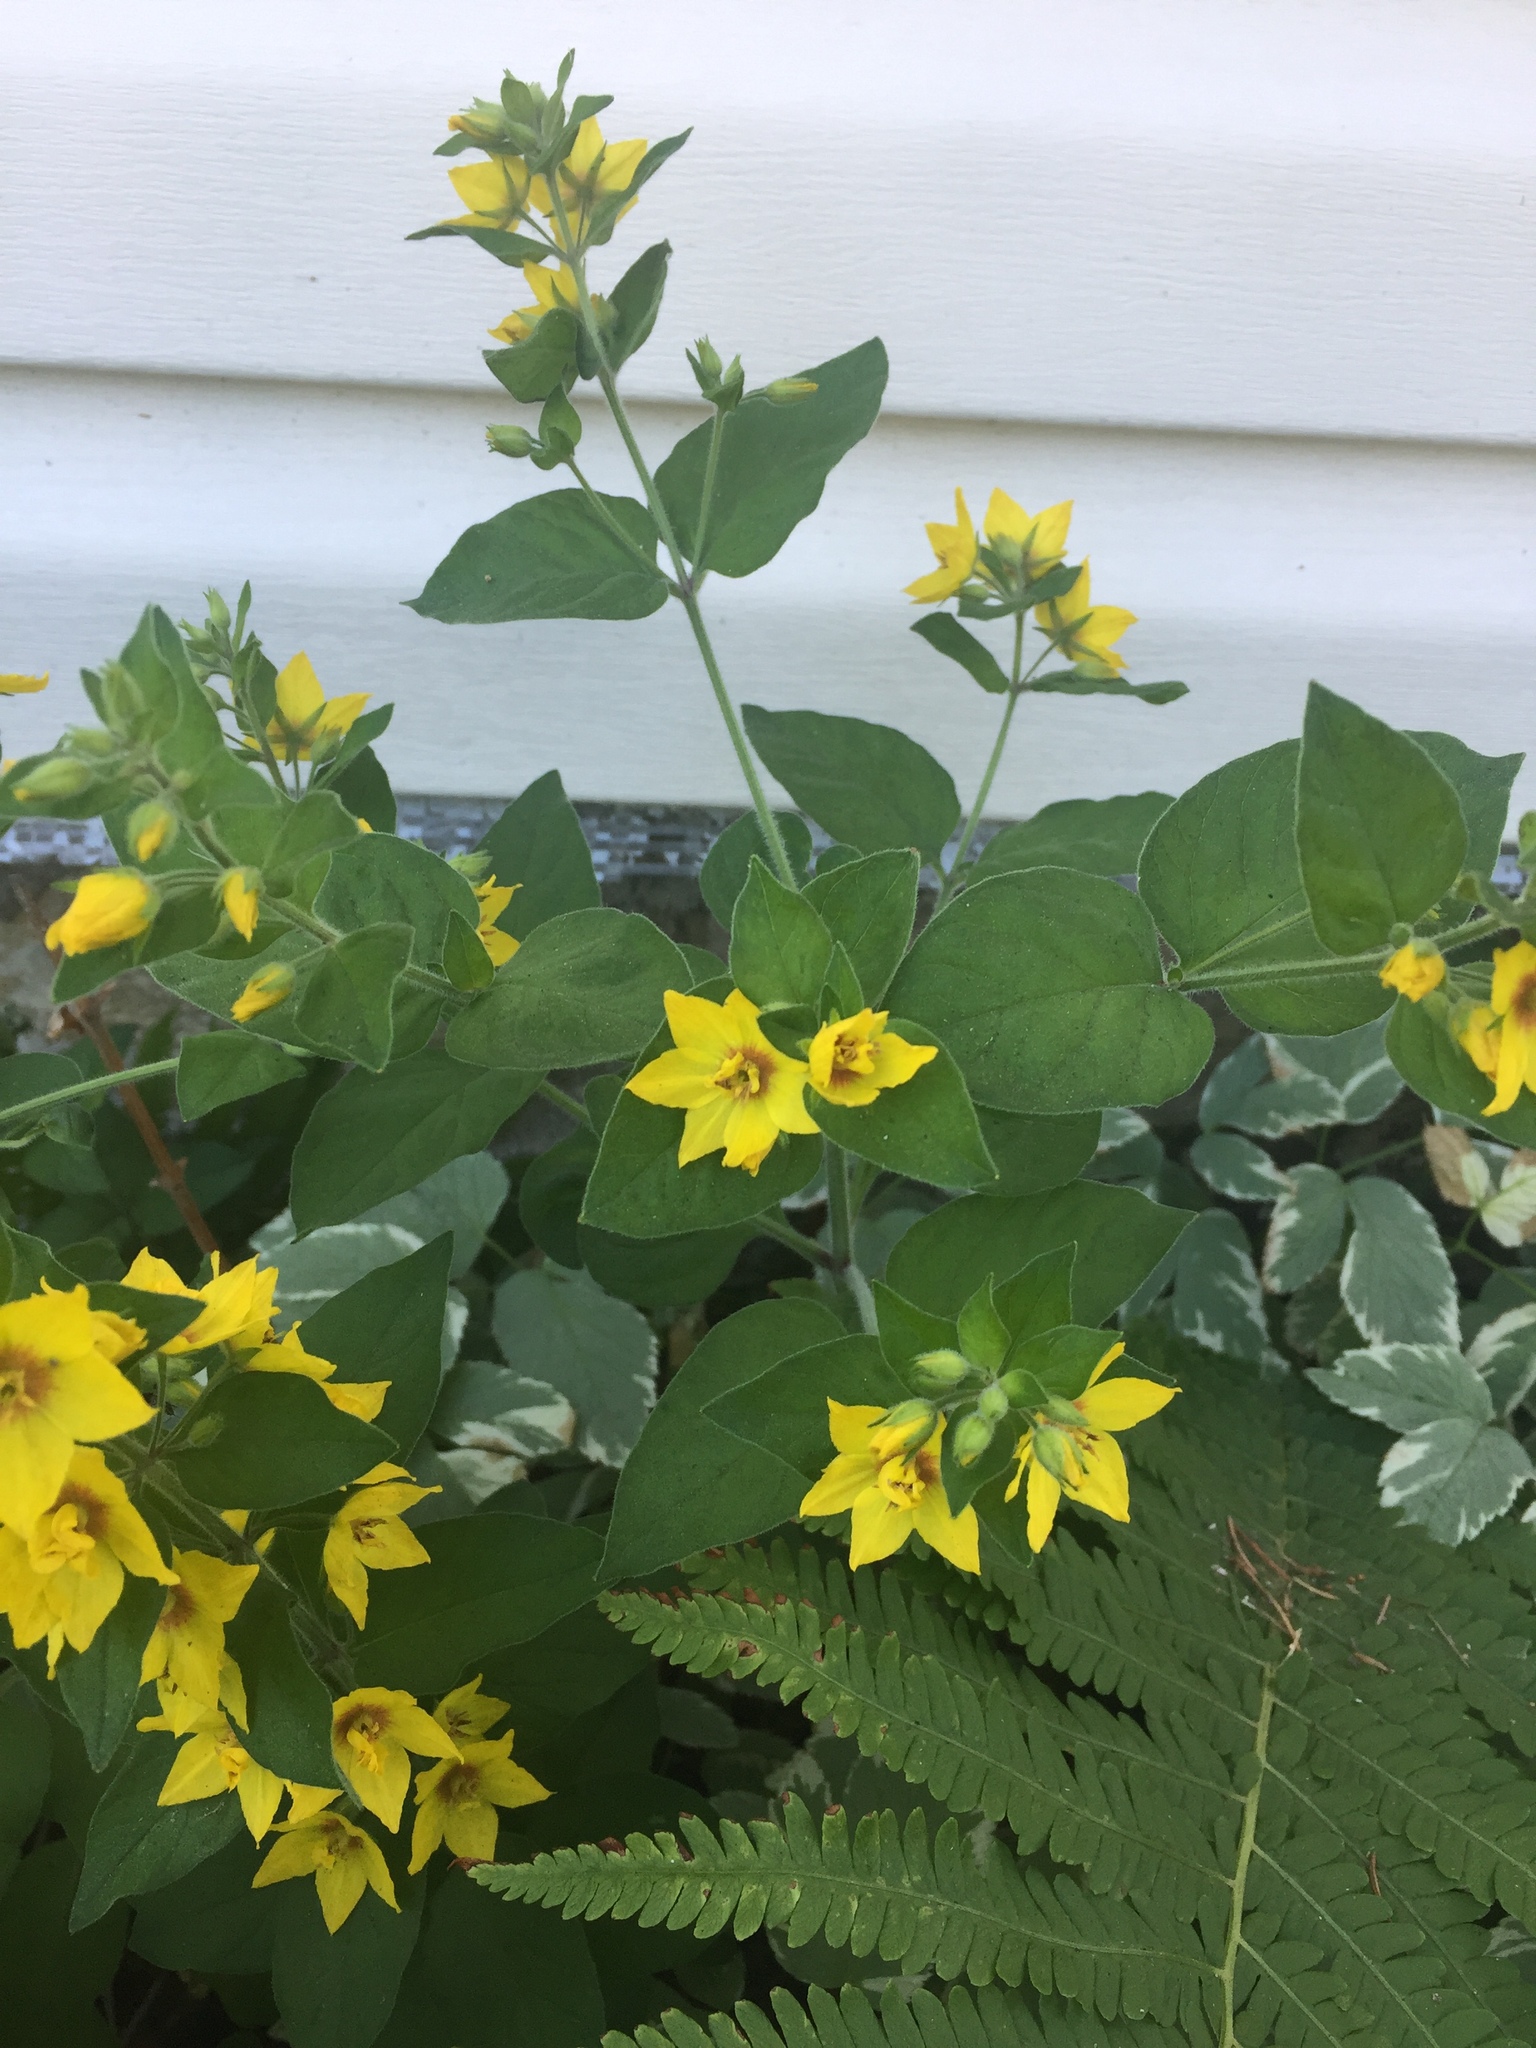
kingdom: Plantae
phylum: Tracheophyta
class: Magnoliopsida
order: Ericales
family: Primulaceae
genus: Lysimachia
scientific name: Lysimachia punctata
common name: Dotted loosestrife
